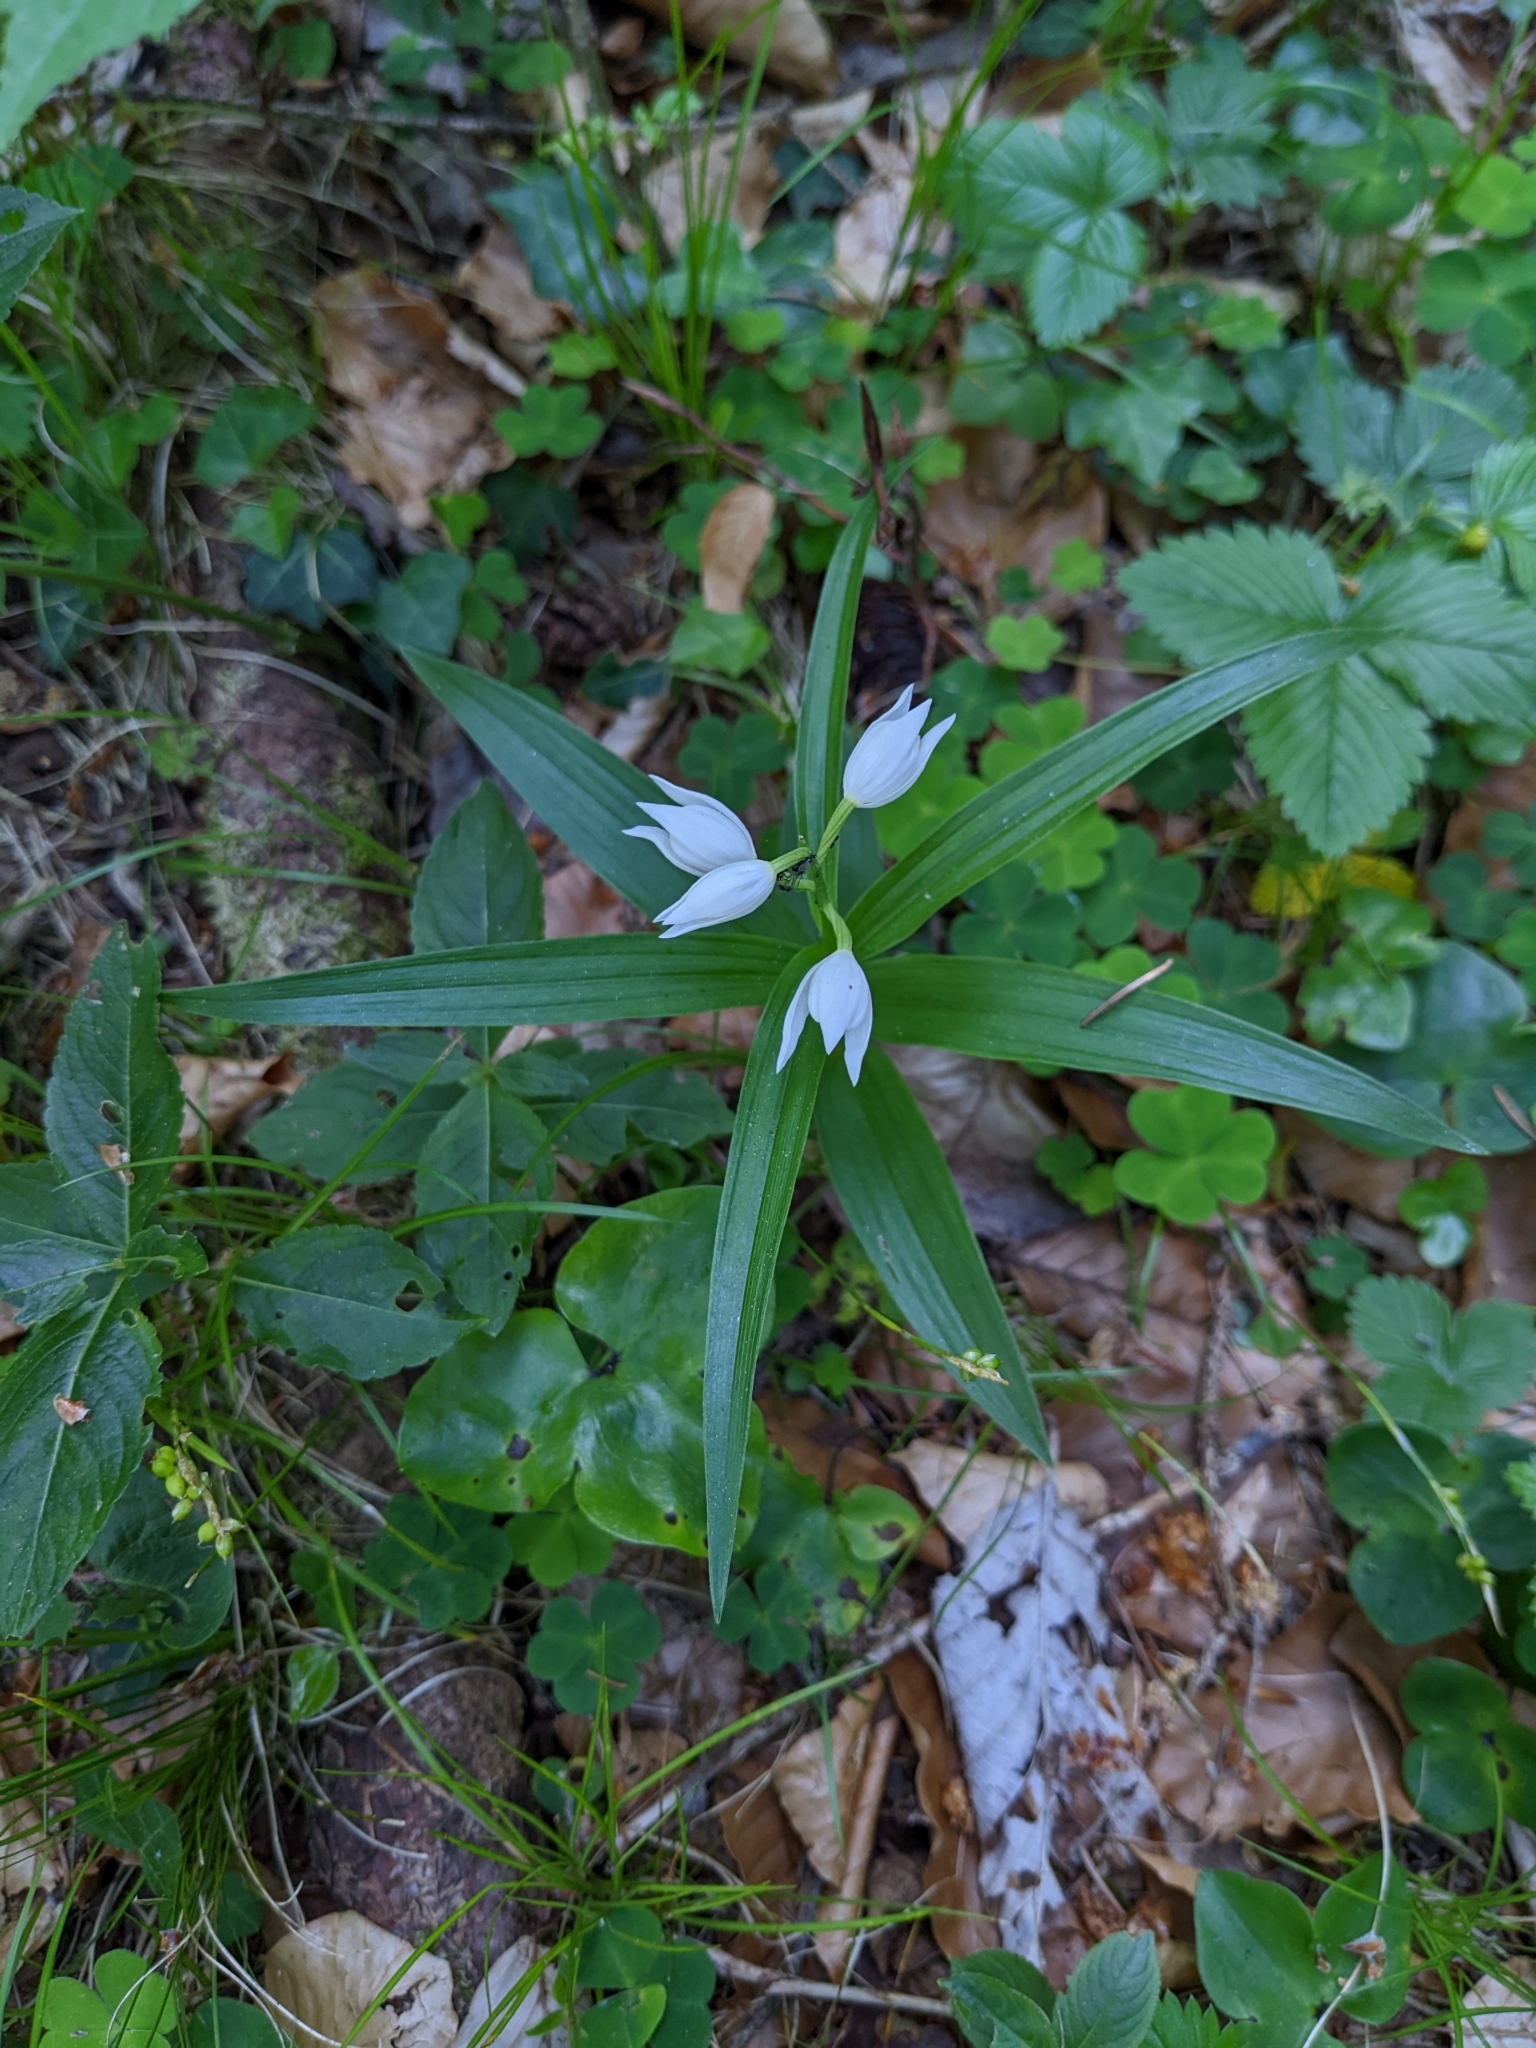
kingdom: Plantae
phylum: Tracheophyta
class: Liliopsida
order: Asparagales
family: Orchidaceae
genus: Cephalanthera
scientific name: Cephalanthera longifolia
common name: Narrow-leaved helleborine
